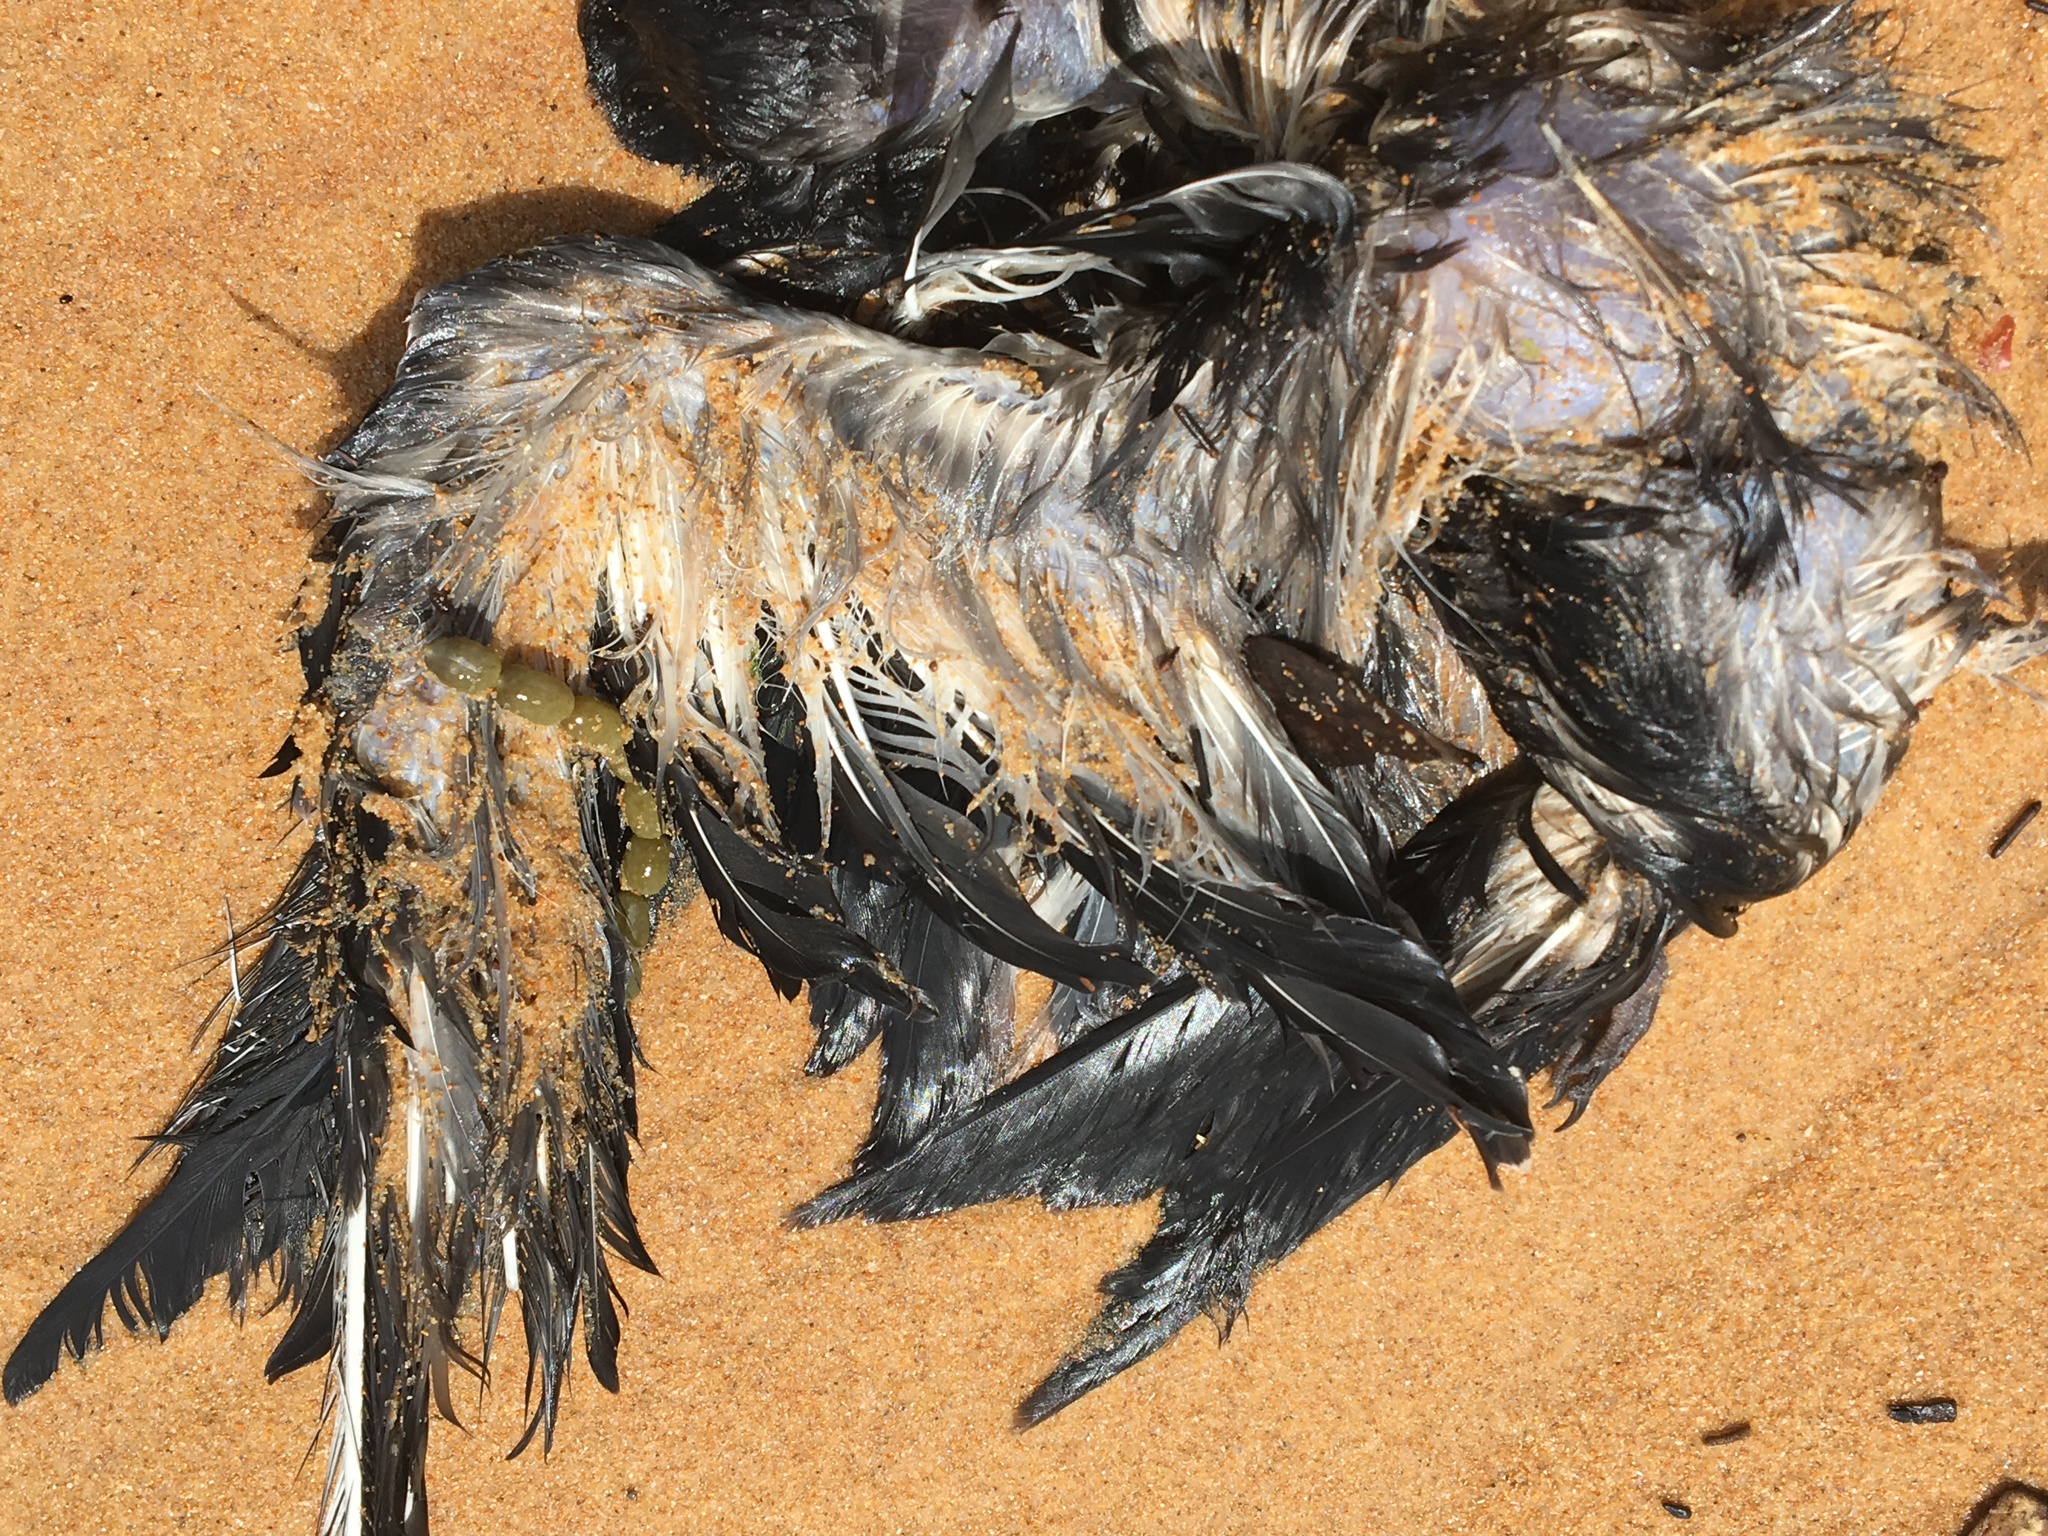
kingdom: Animalia
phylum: Chordata
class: Aves
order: Charadriiformes
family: Laridae
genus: Onychoprion
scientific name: Onychoprion fuscatus
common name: Sooty tern
